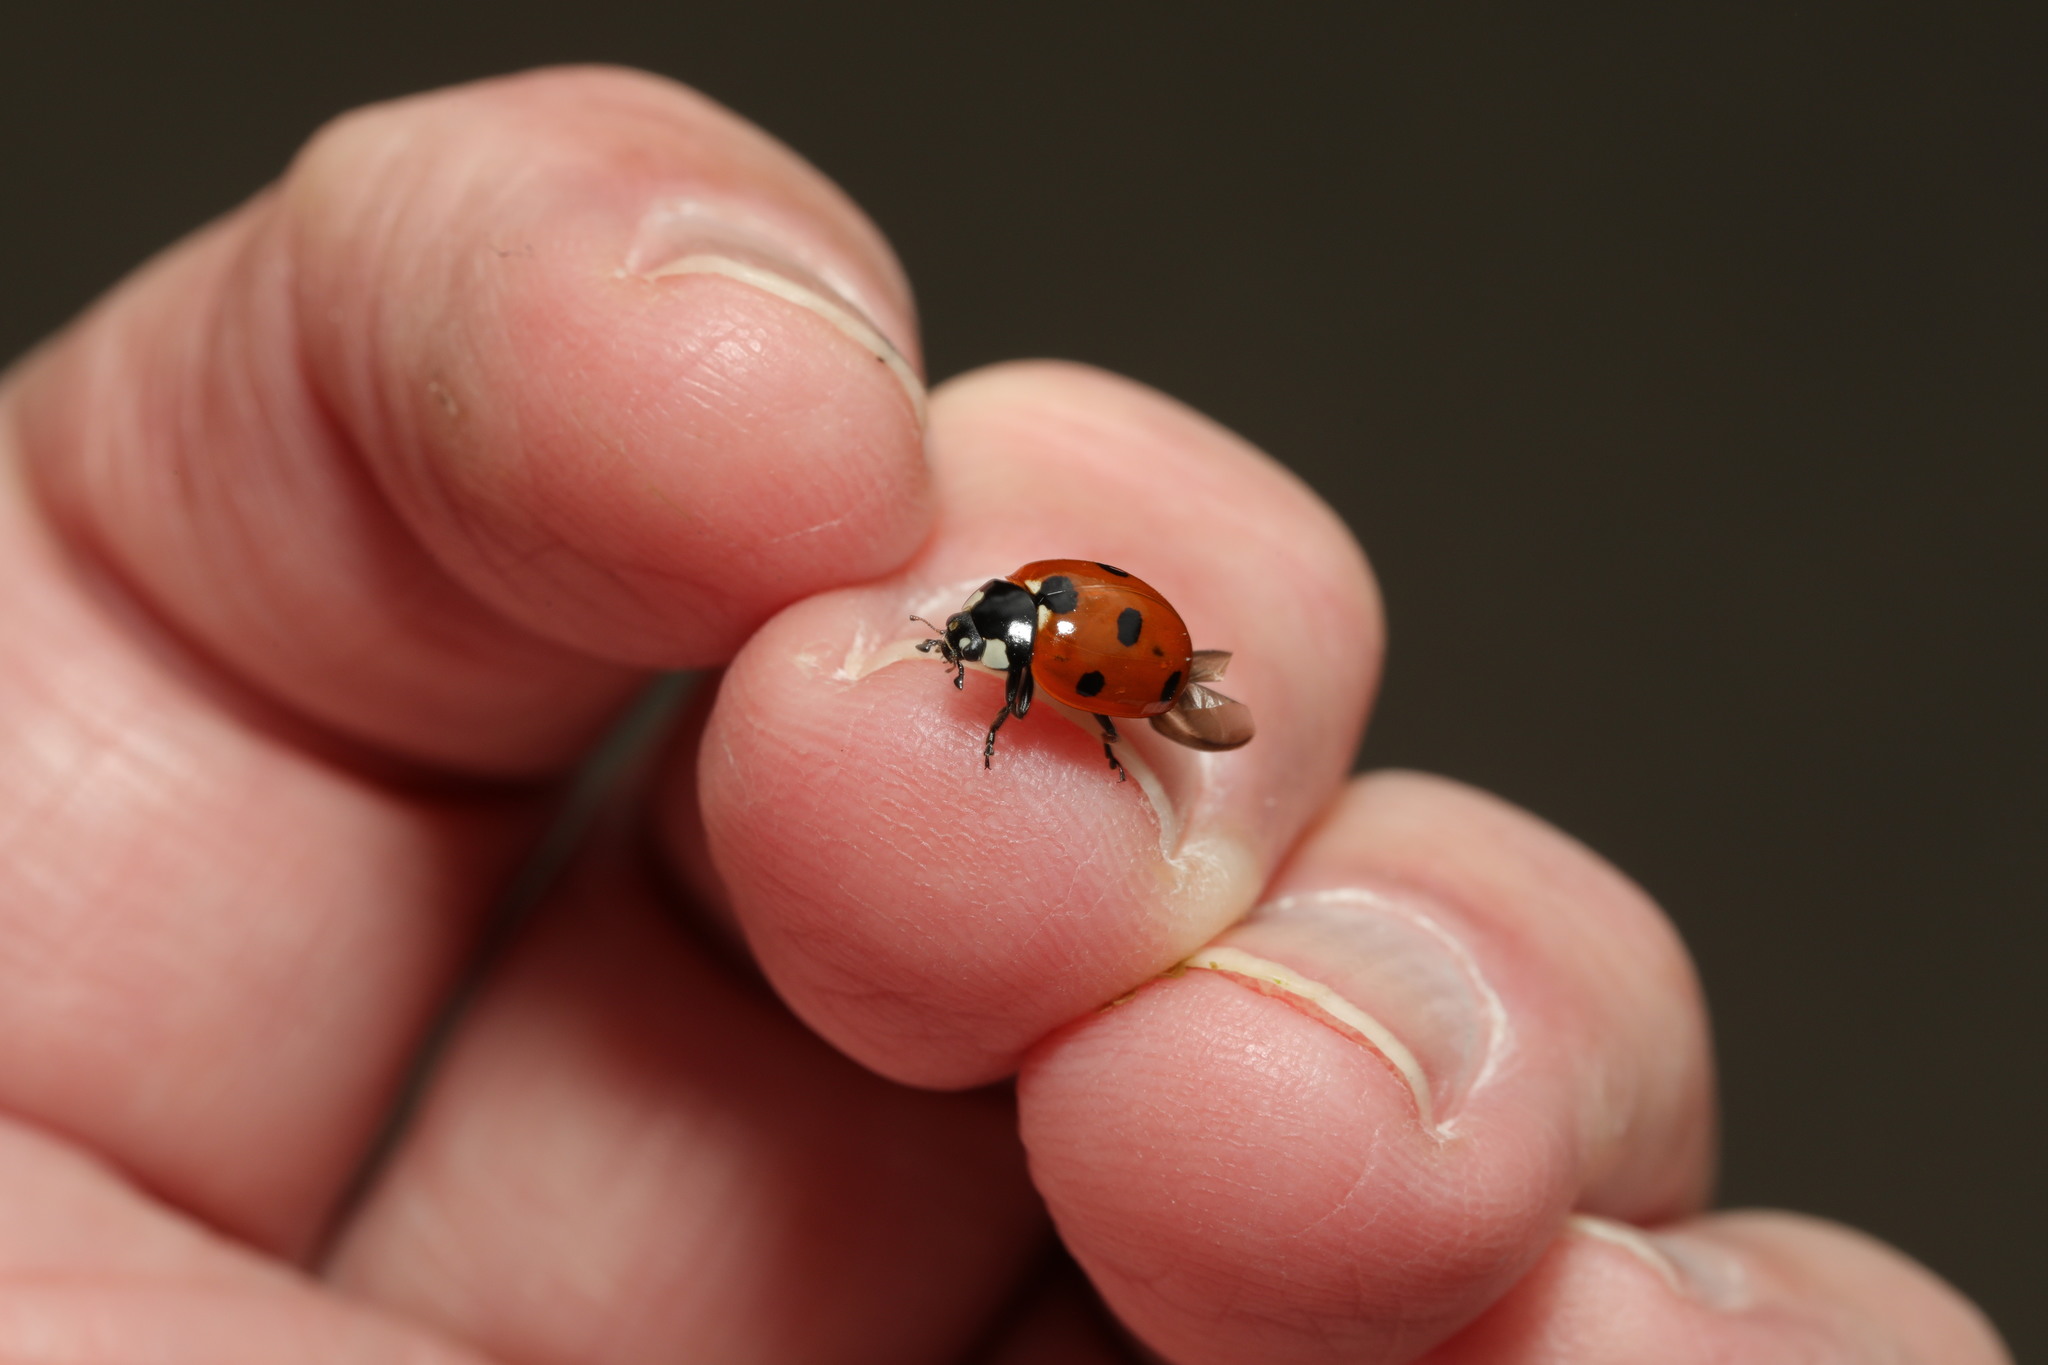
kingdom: Animalia
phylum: Arthropoda
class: Insecta
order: Coleoptera
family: Coccinellidae
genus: Coccinella
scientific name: Coccinella septempunctata
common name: Sevenspotted lady beetle
